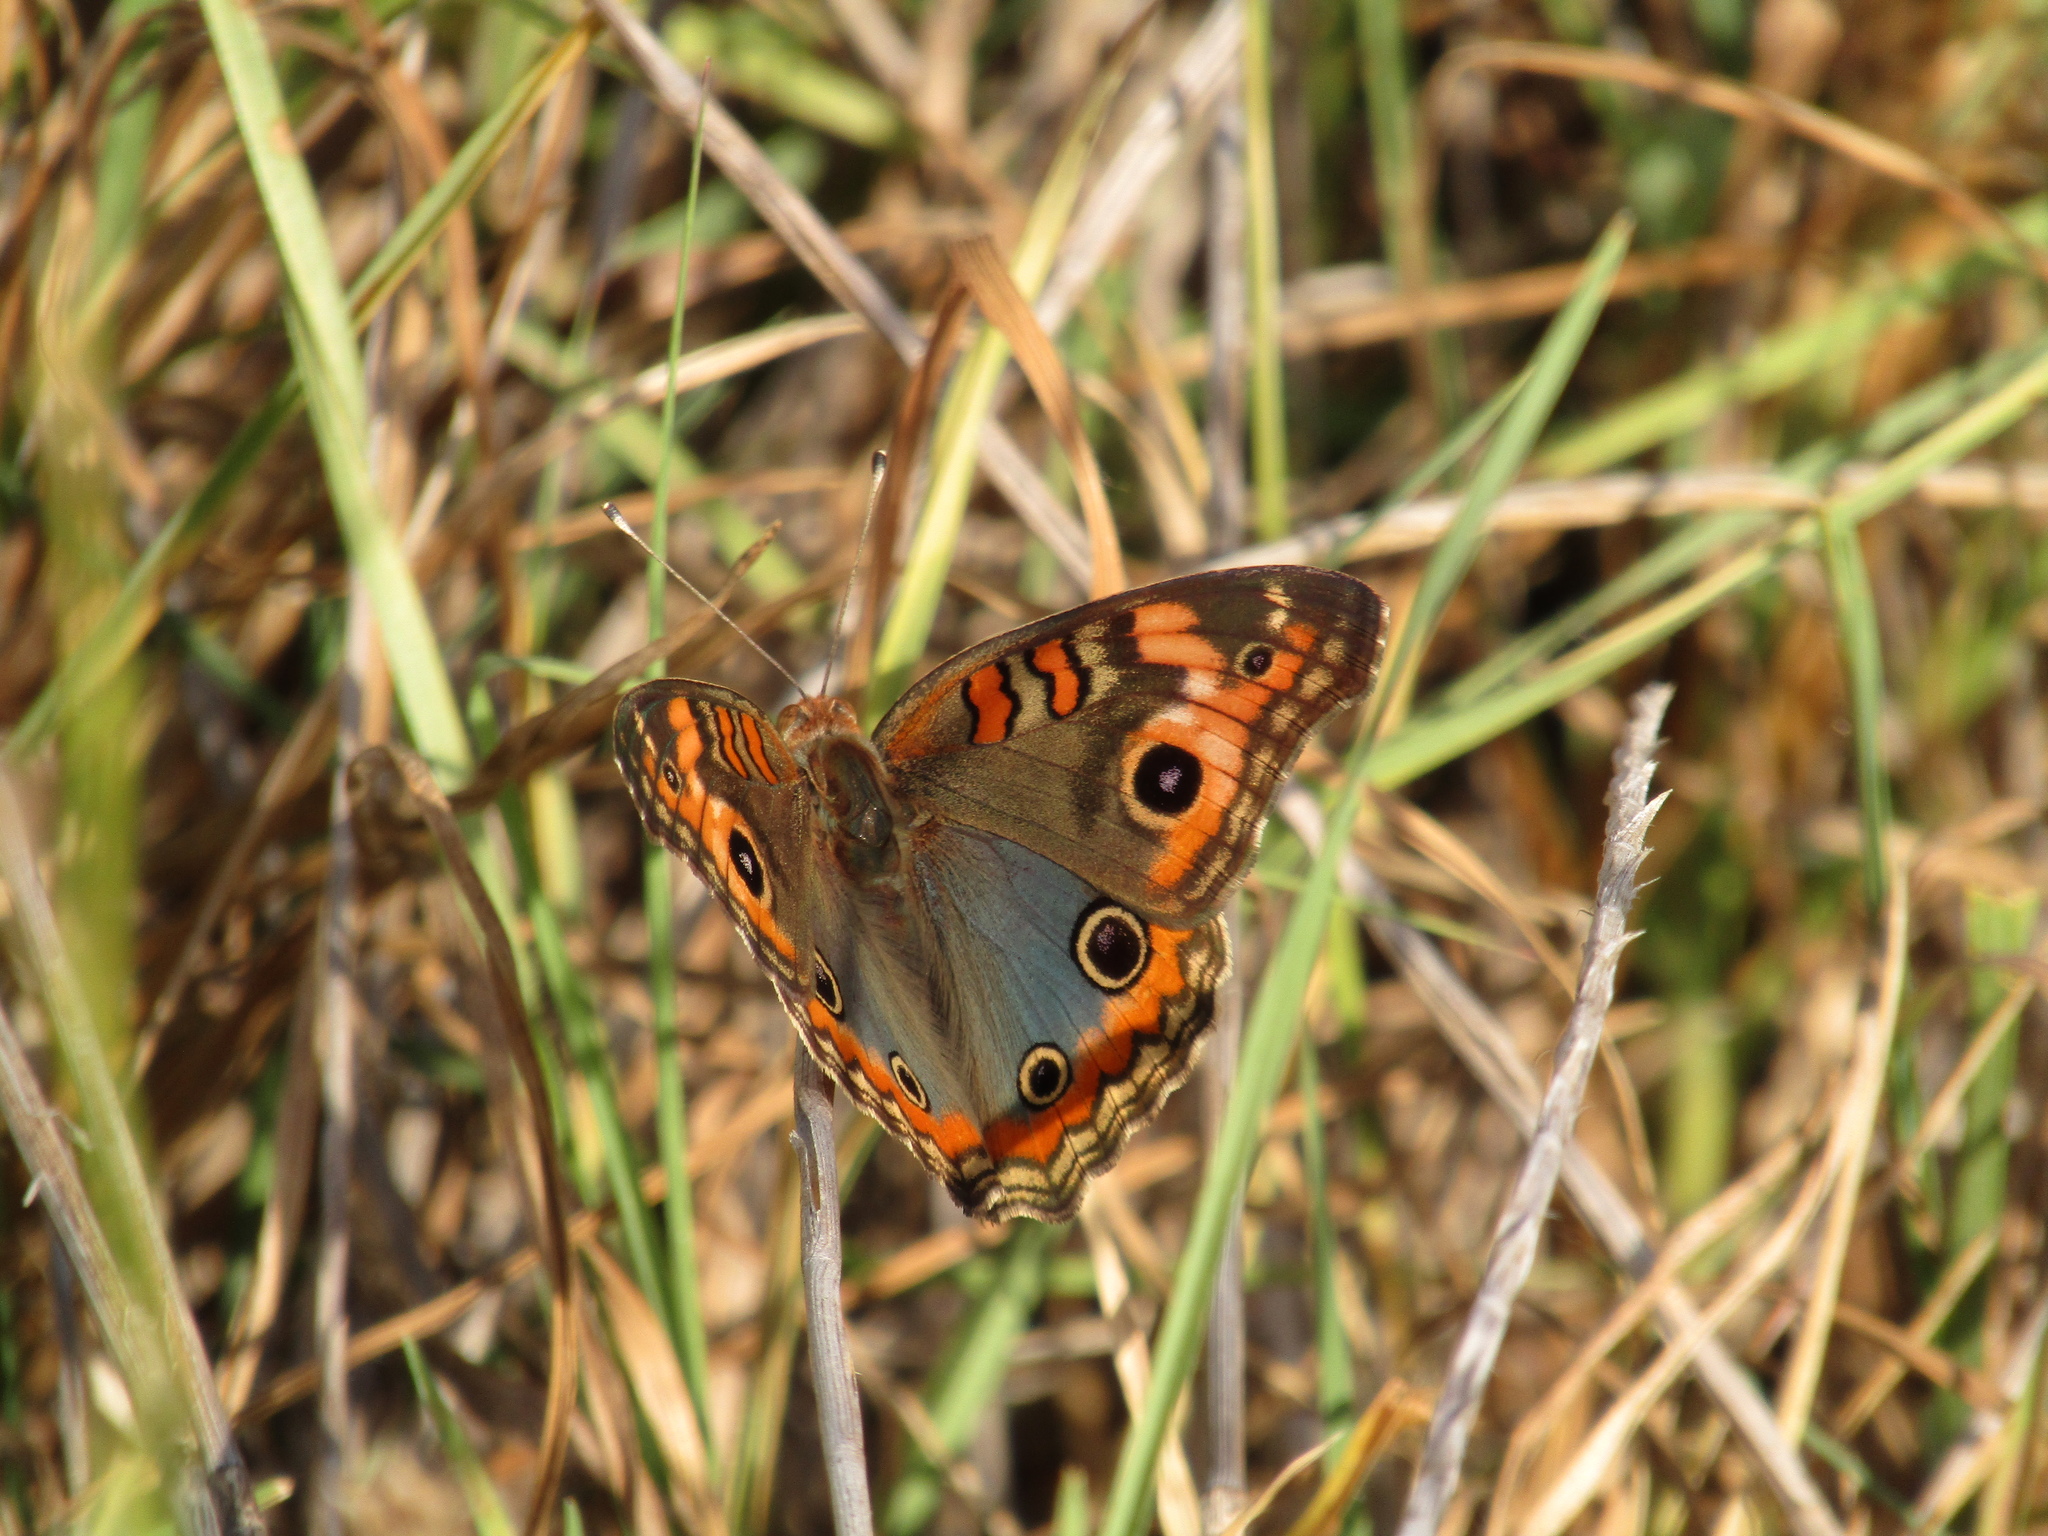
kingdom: Animalia
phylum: Arthropoda
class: Insecta
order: Lepidoptera
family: Nymphalidae
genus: Junonia
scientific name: Junonia lavinia
